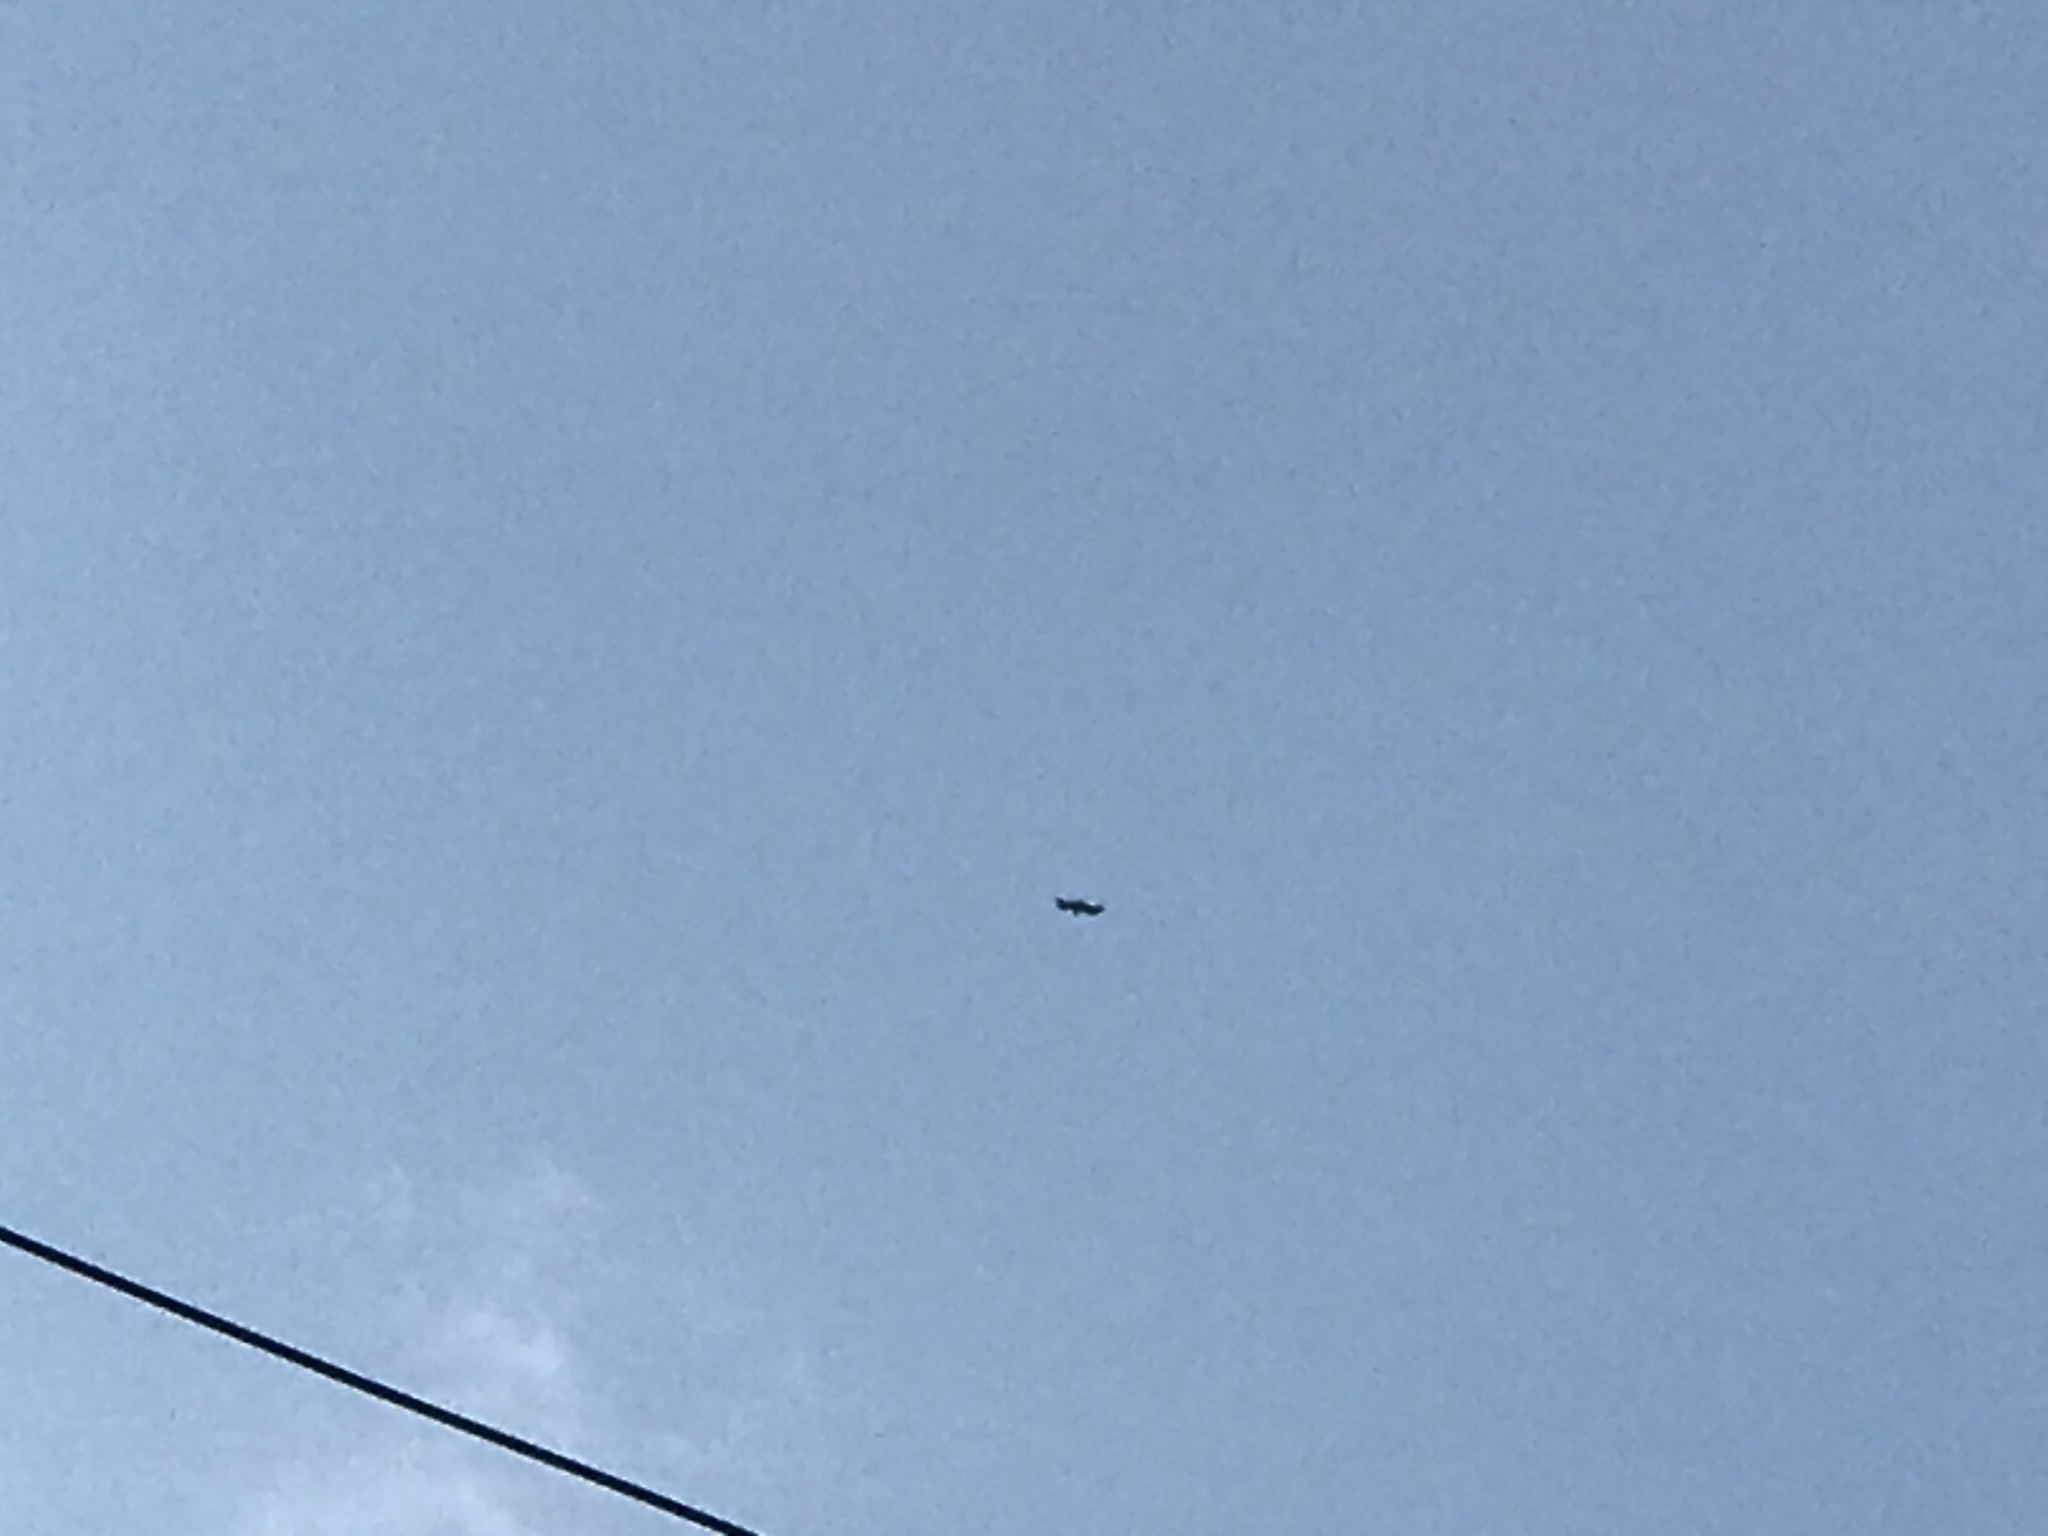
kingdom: Animalia
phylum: Chordata
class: Aves
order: Accipitriformes
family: Accipitridae
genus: Haliaeetus
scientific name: Haliaeetus leucocephalus
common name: Bald eagle
